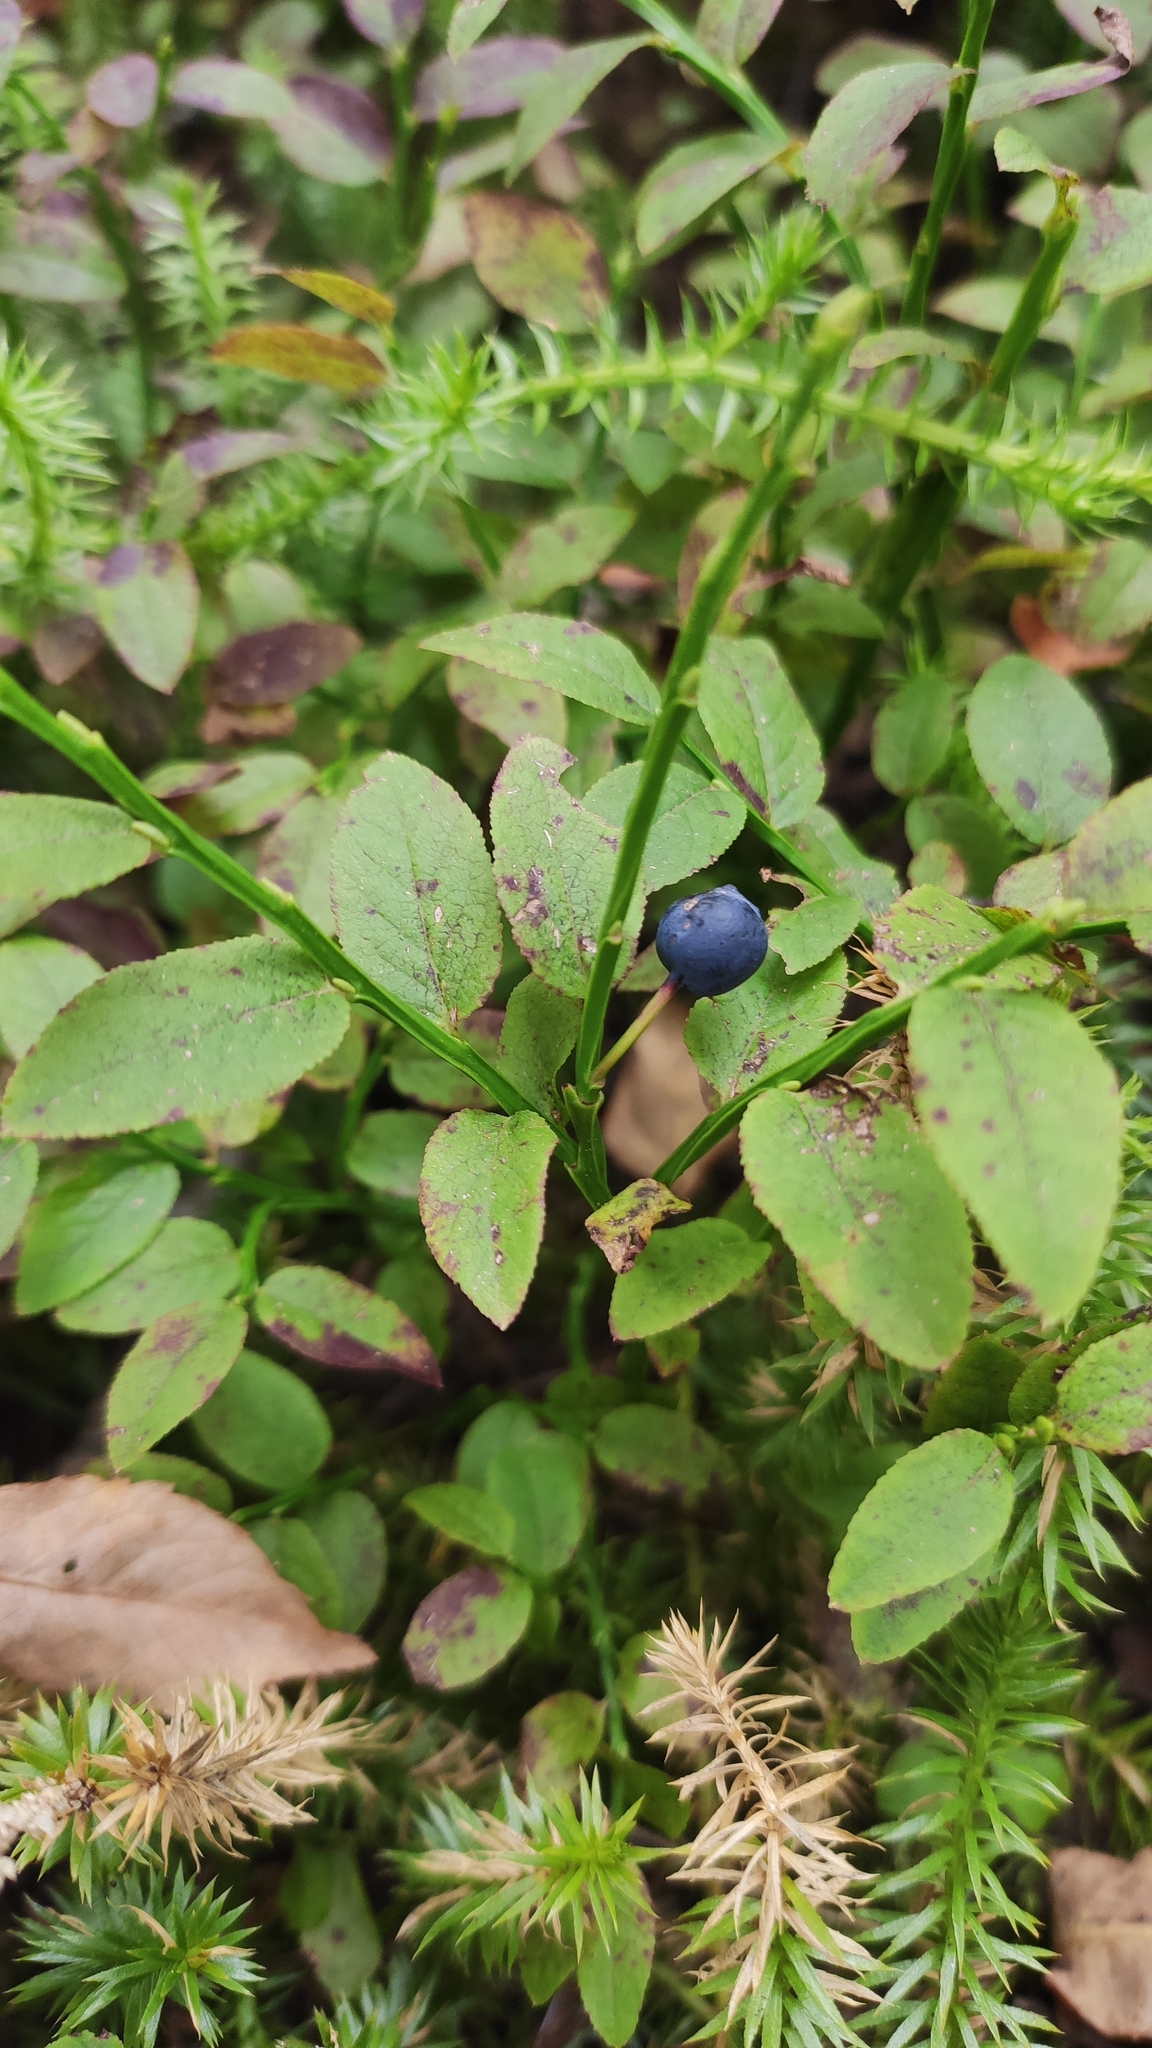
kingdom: Plantae
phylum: Tracheophyta
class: Magnoliopsida
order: Ericales
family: Ericaceae
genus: Vaccinium
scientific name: Vaccinium myrtillus
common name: Bilberry
